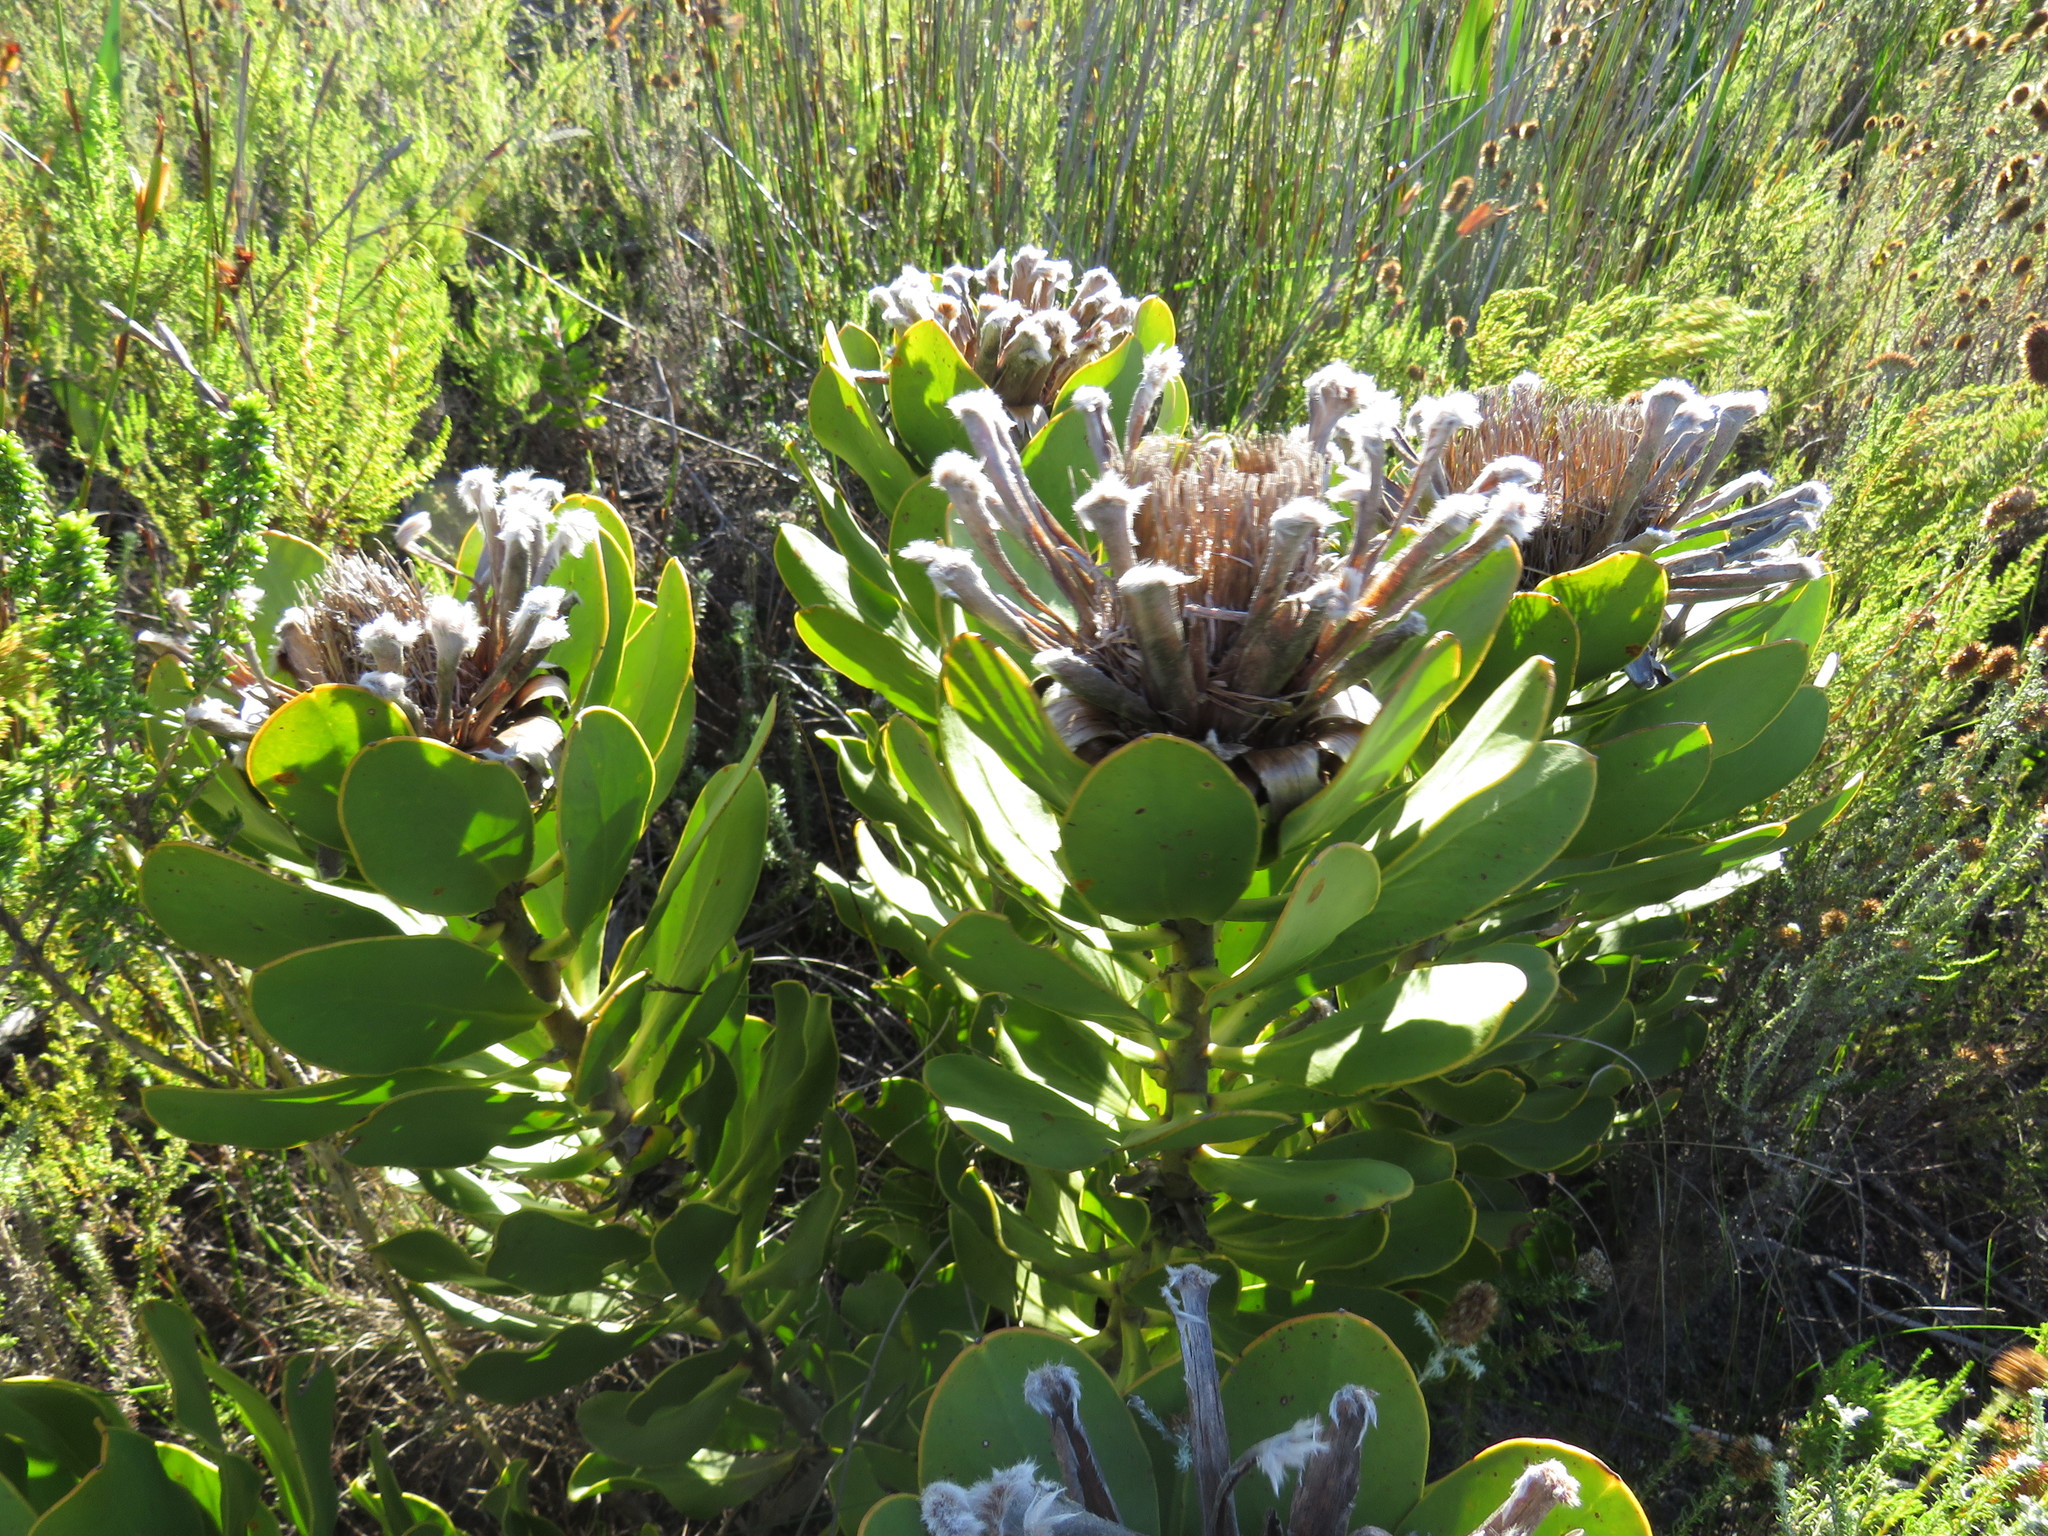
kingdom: Plantae
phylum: Tracheophyta
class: Magnoliopsida
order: Proteales
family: Proteaceae
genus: Protea
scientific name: Protea speciosa
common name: Brown-beard sugarbush
